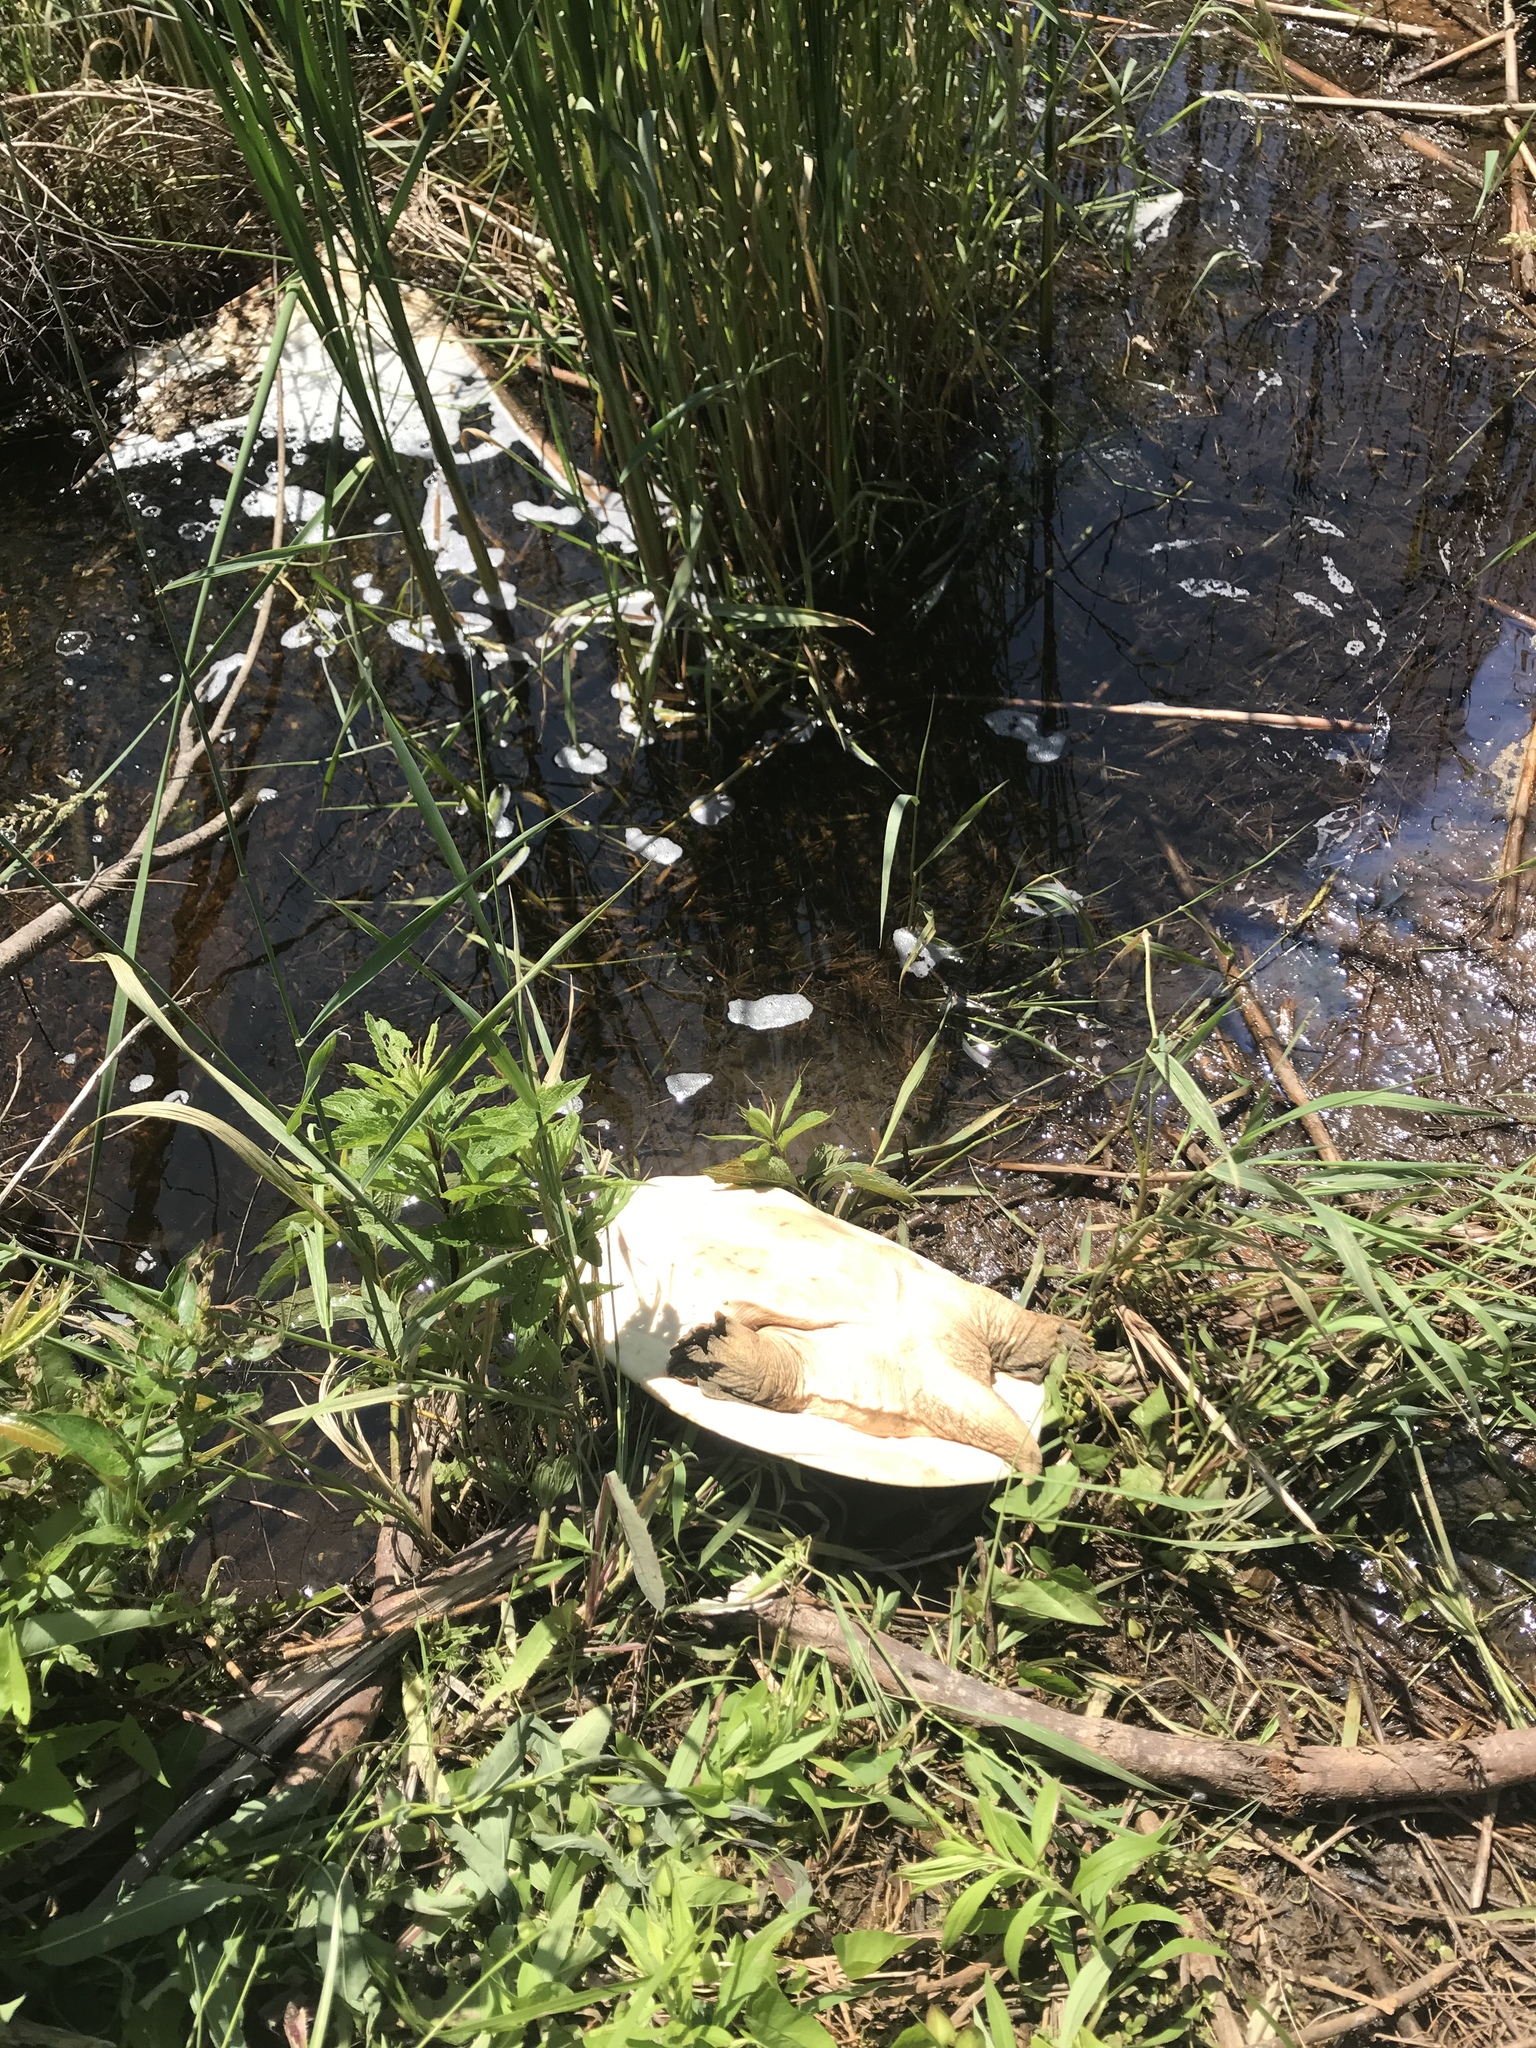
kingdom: Animalia
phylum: Chordata
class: Testudines
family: Trionychidae
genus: Apalone
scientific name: Apalone spinifera
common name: Spiny softshell turtle
